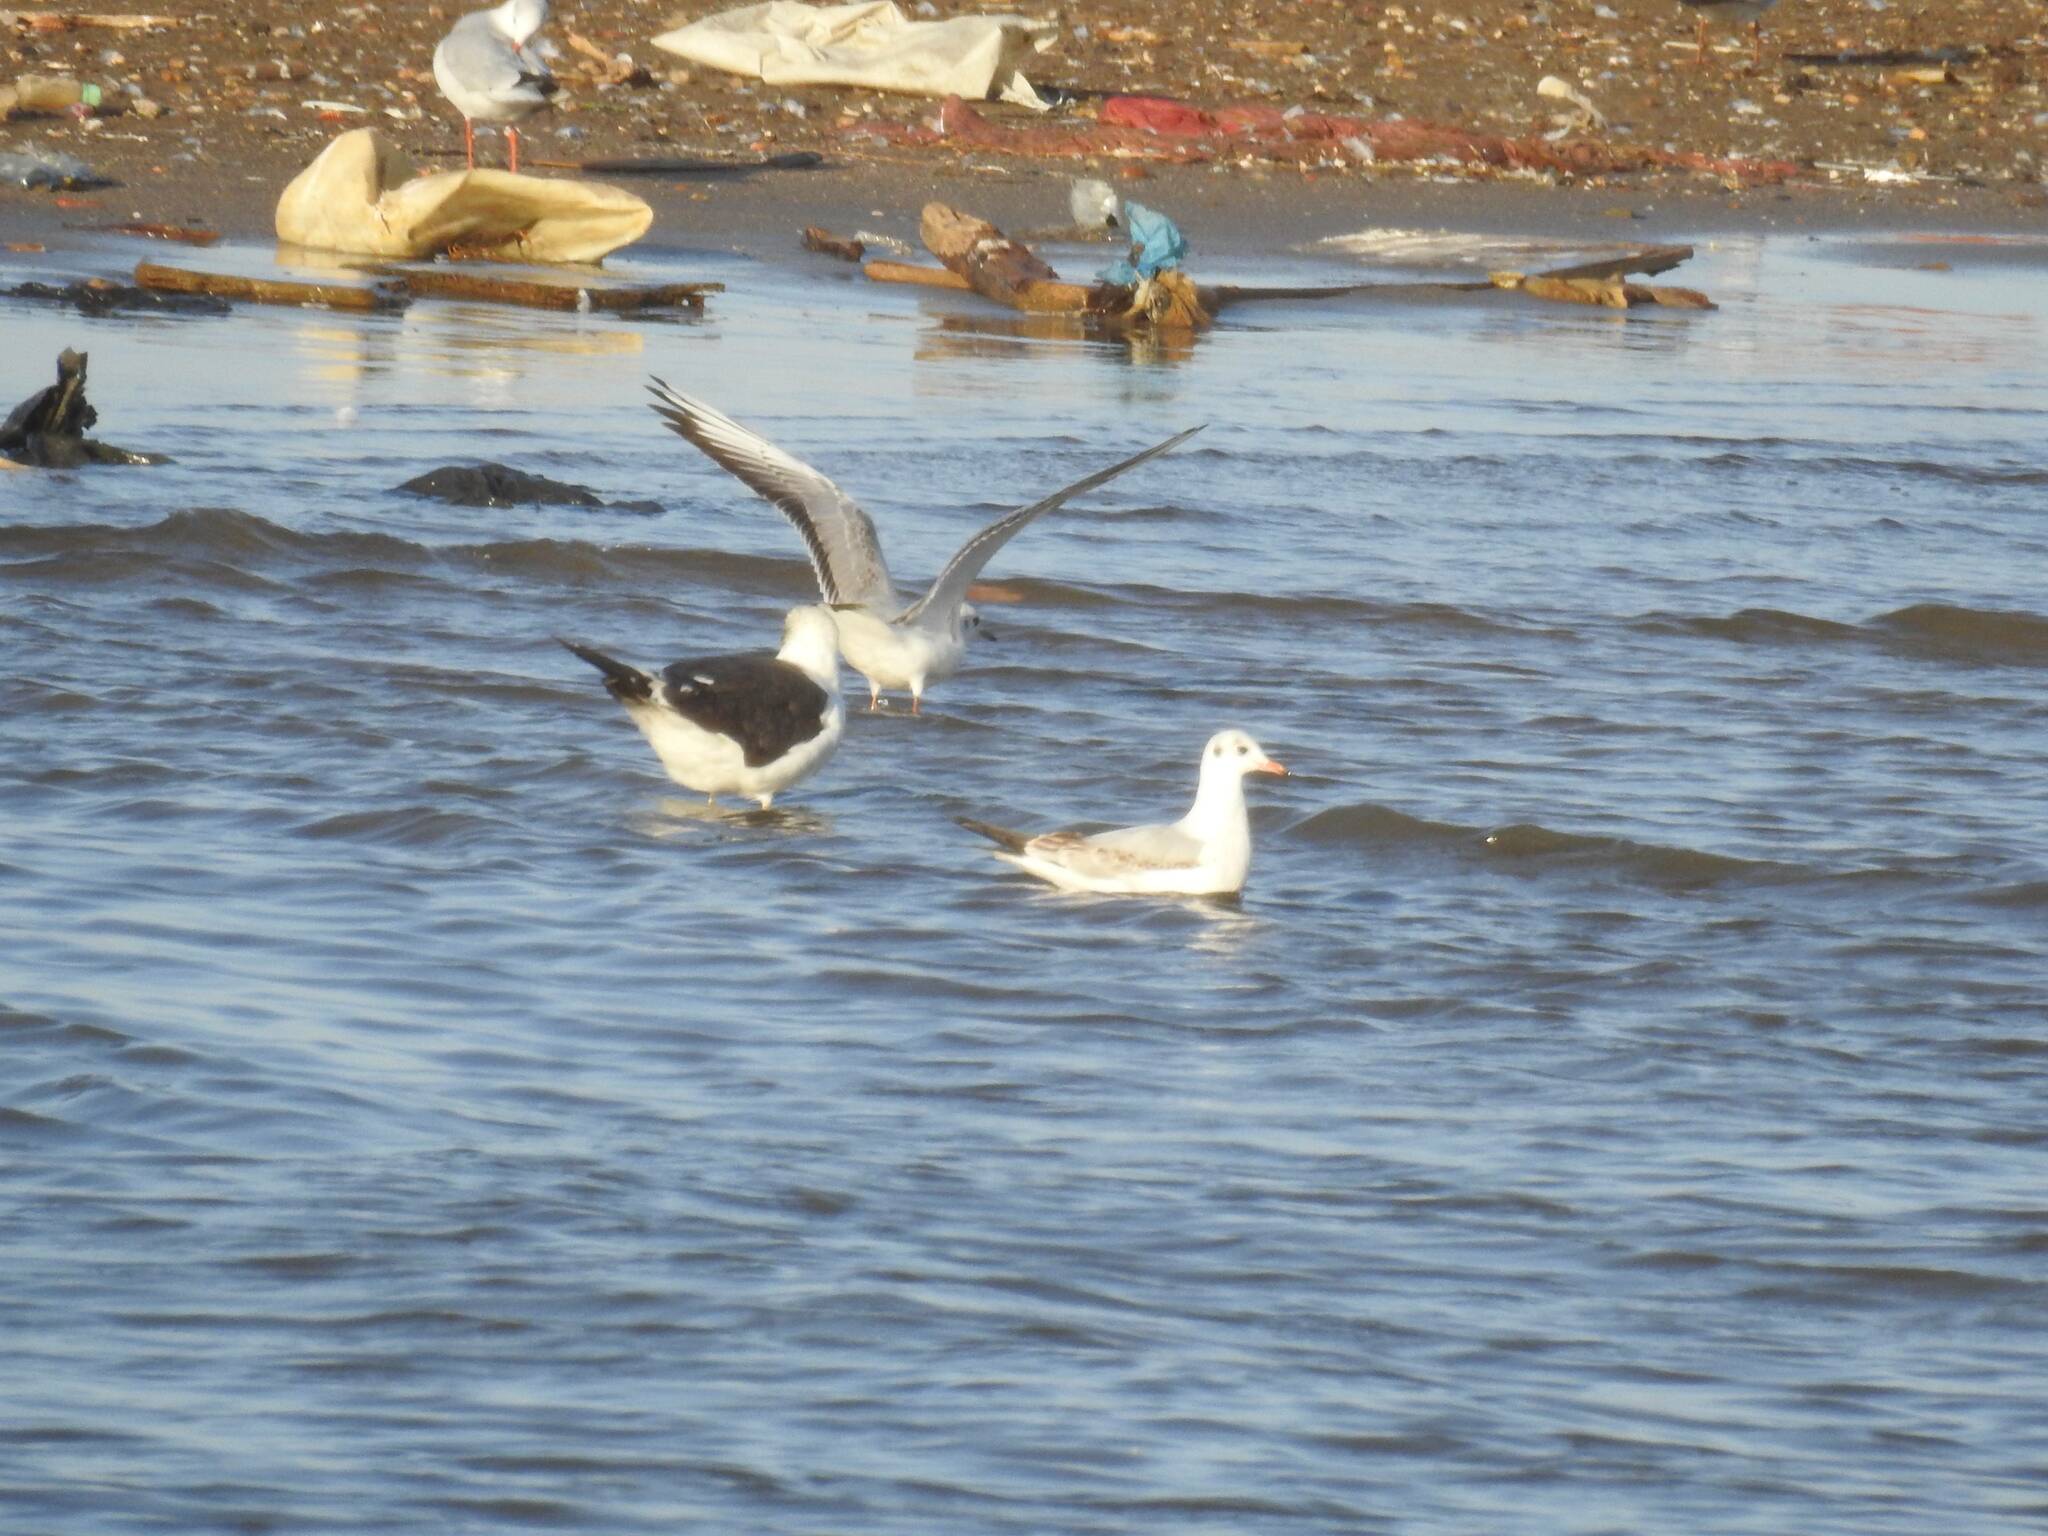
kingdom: Animalia
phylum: Chordata
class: Aves
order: Charadriiformes
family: Laridae
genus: Larus
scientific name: Larus fuscus
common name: Lesser black-backed gull
